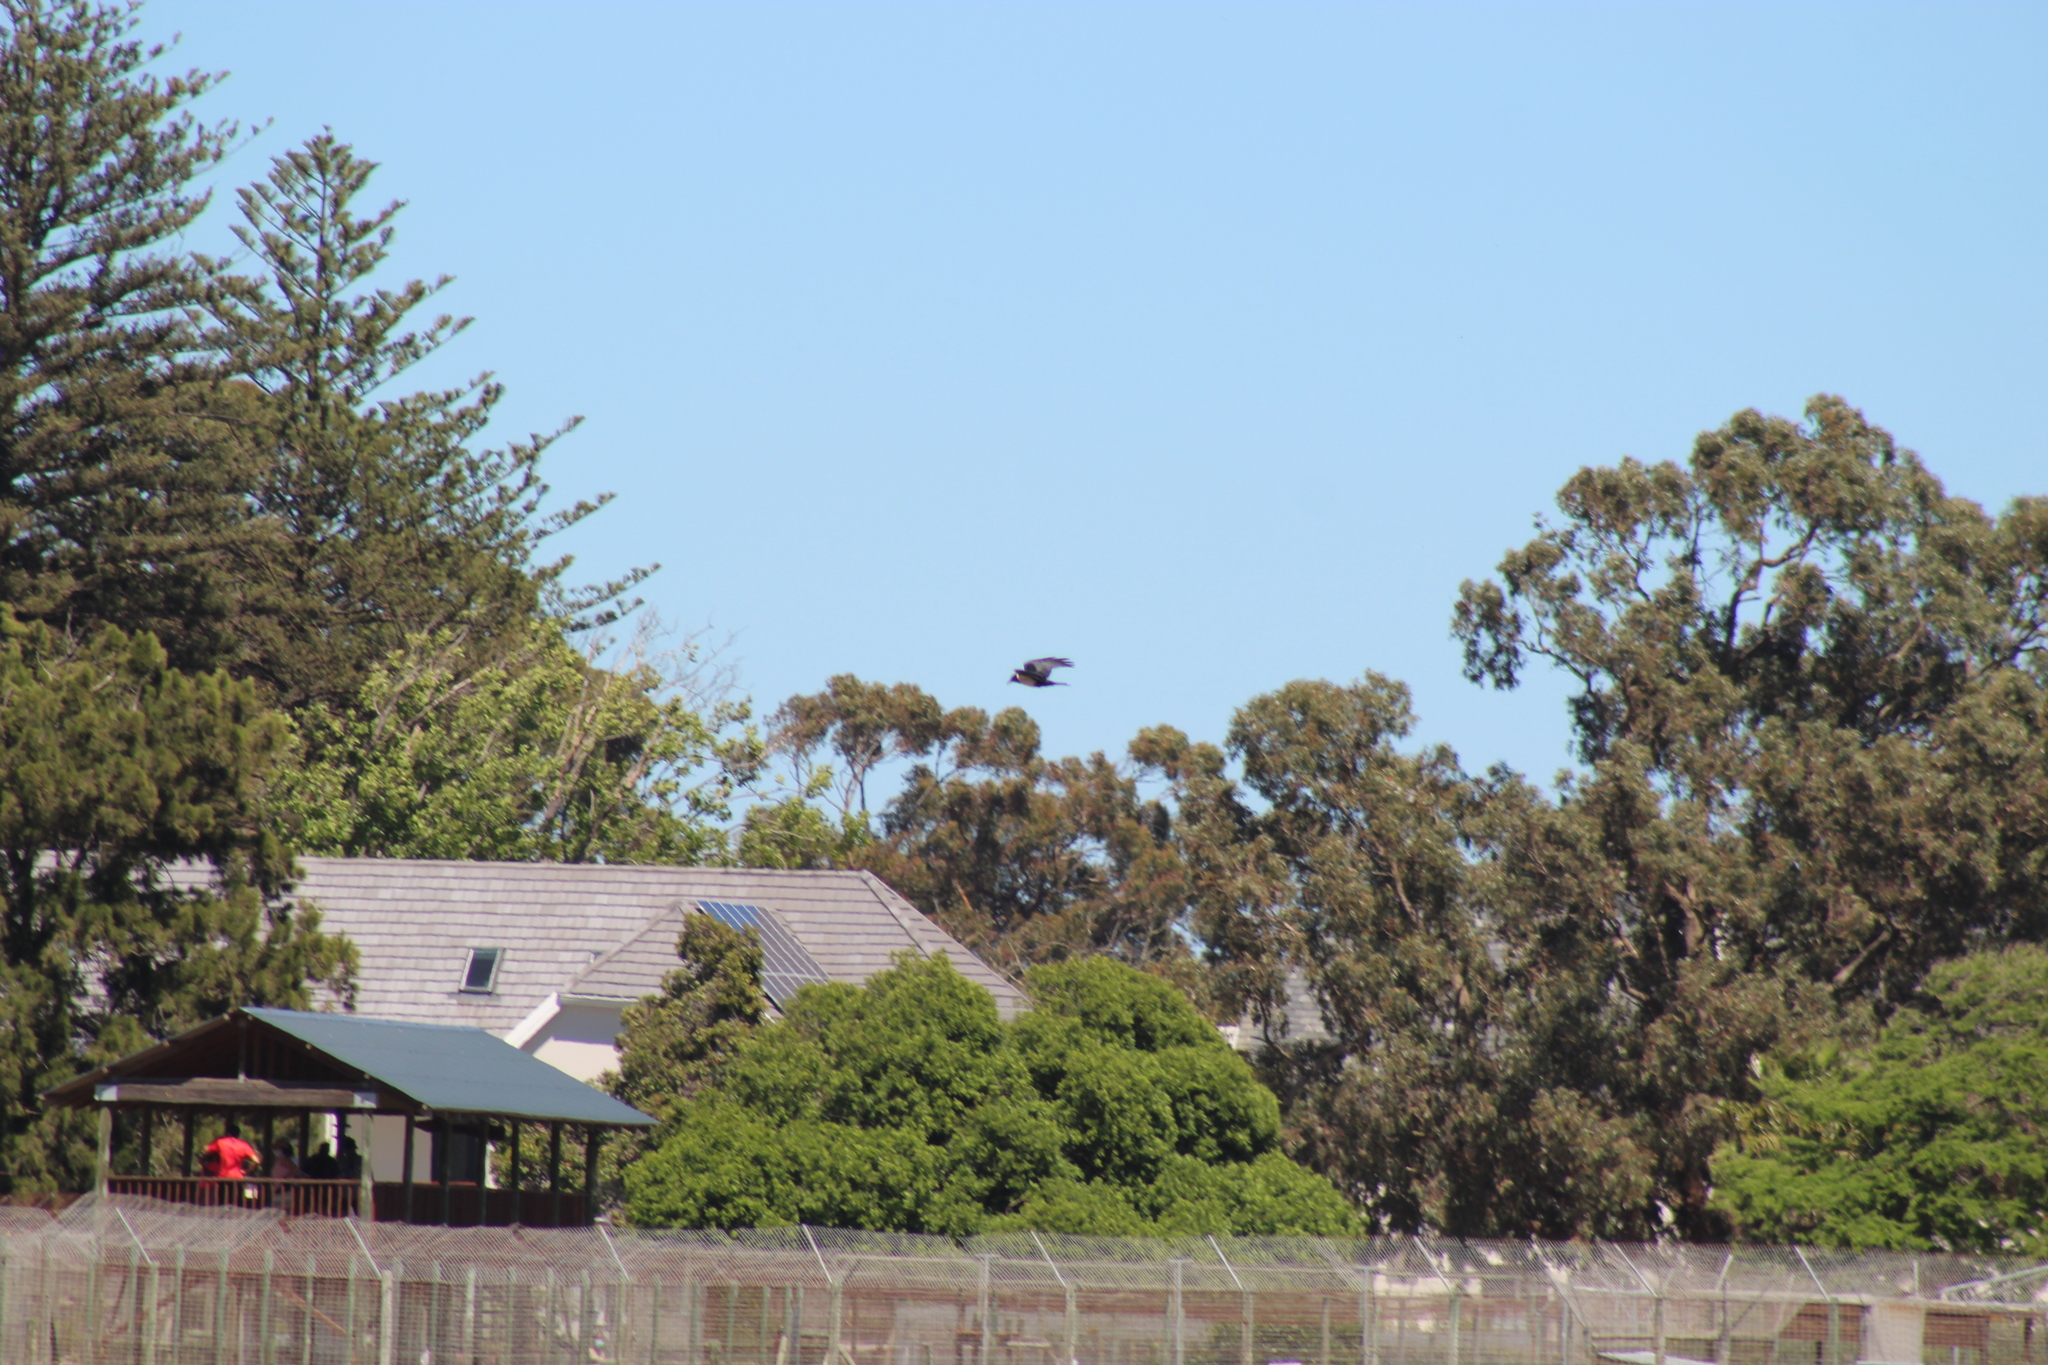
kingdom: Animalia
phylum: Chordata
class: Aves
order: Passeriformes
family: Corvidae
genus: Corvus
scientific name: Corvus albus
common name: Pied crow
